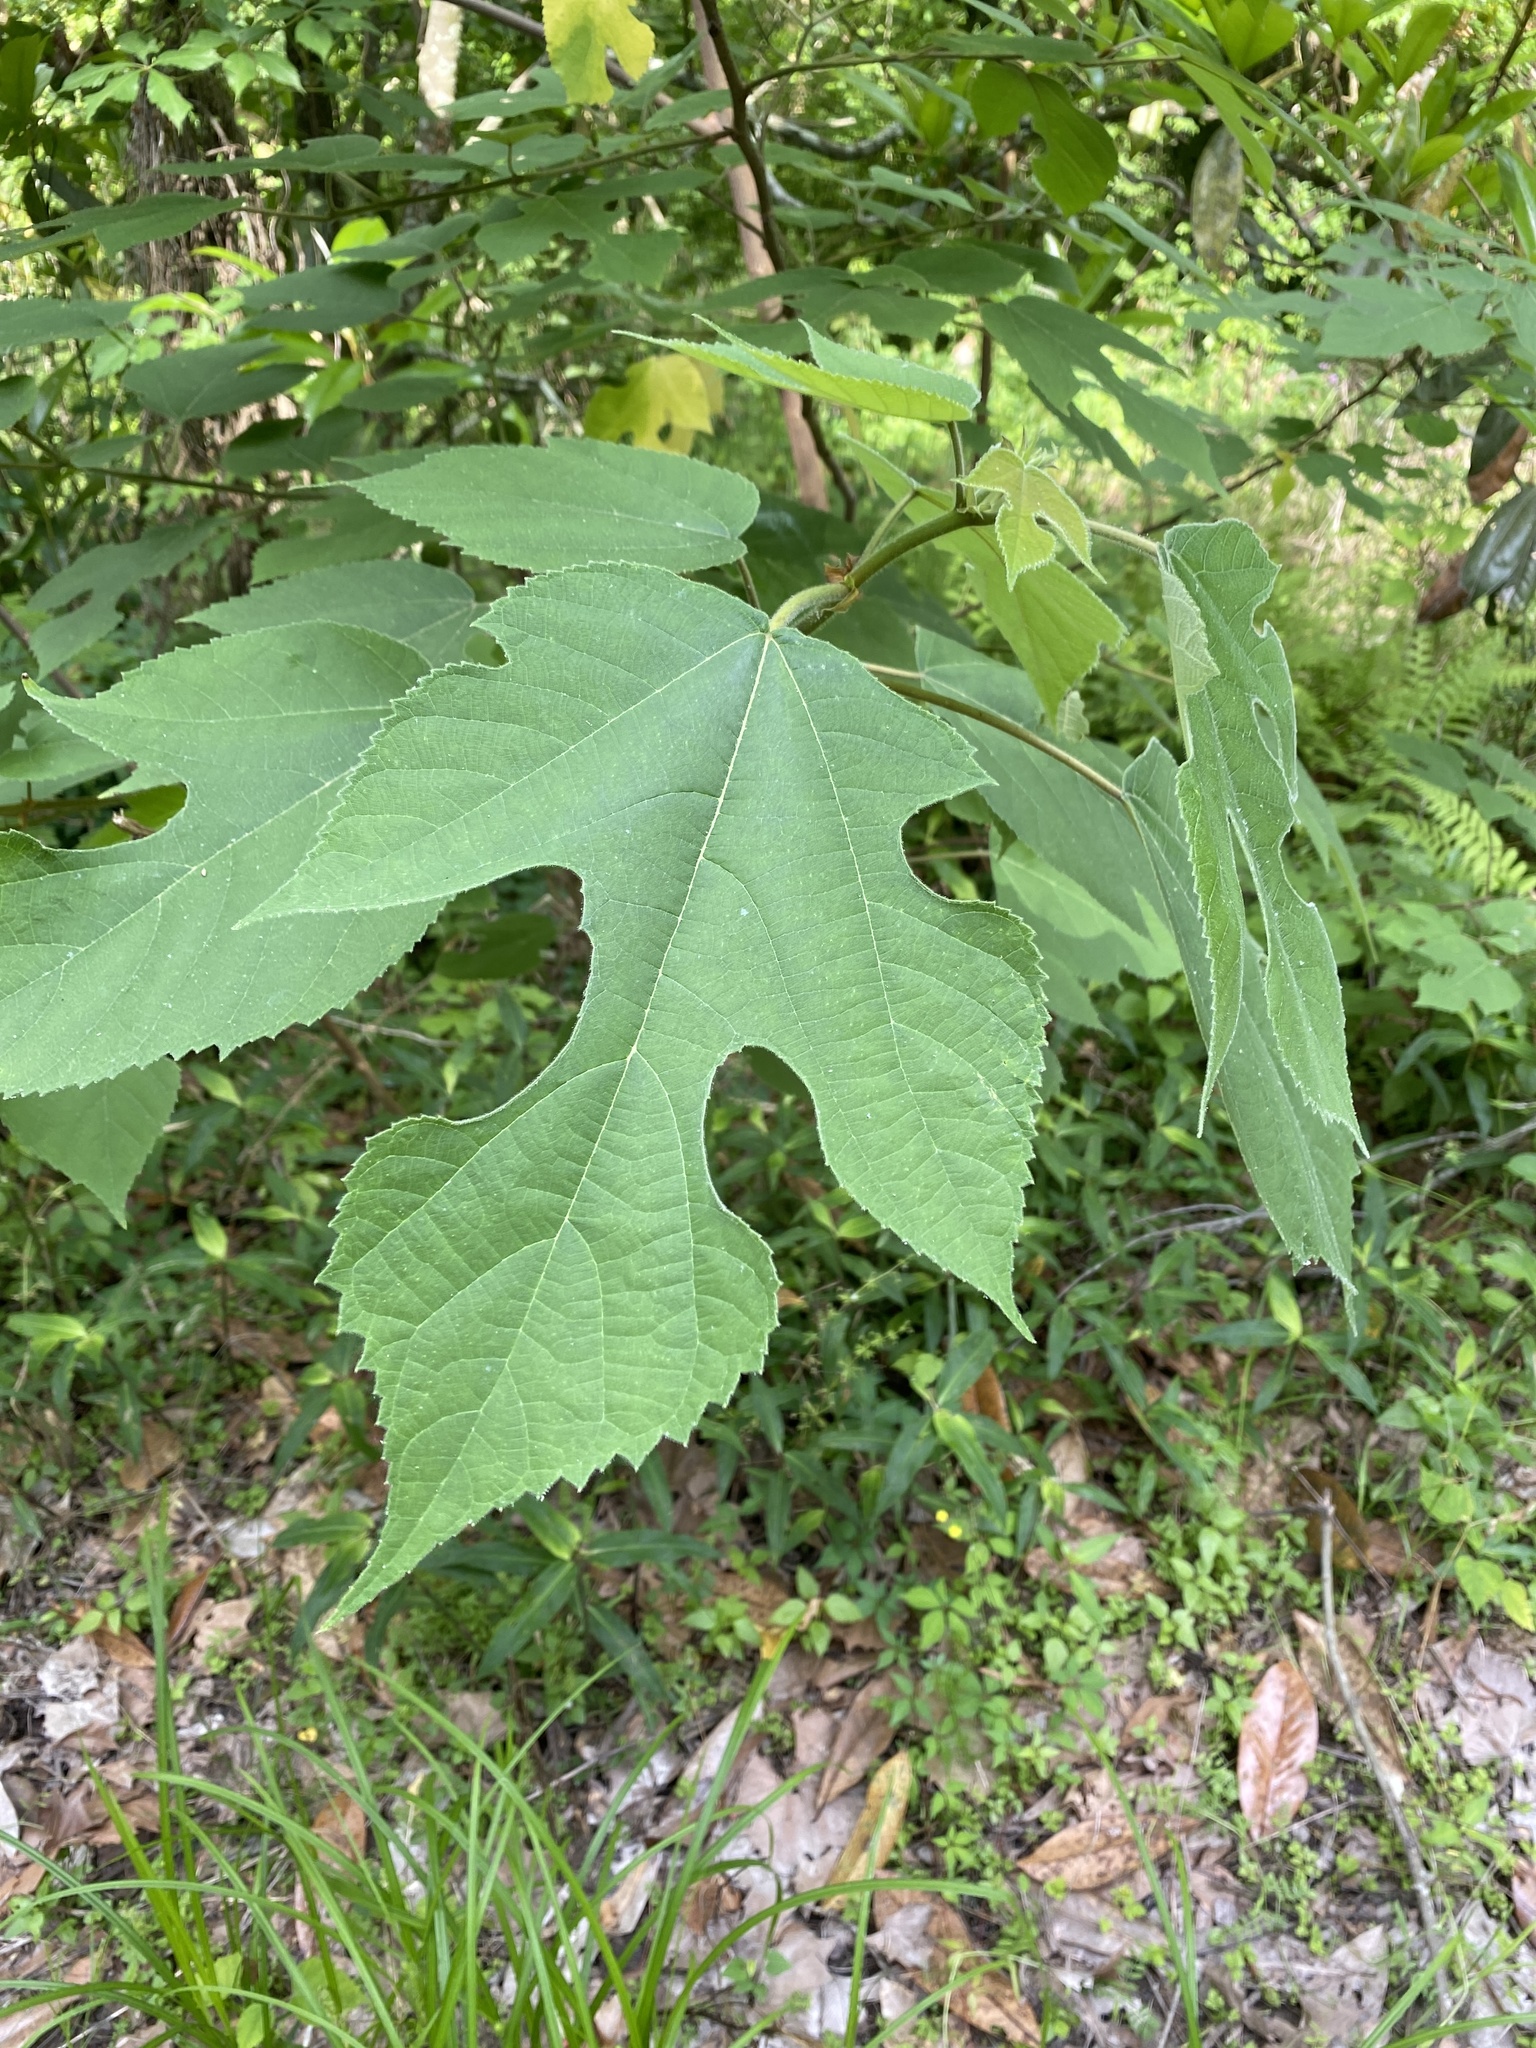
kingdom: Plantae
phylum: Tracheophyta
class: Magnoliopsida
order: Rosales
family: Moraceae
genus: Broussonetia
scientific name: Broussonetia papyrifera
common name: Paper mulberry
